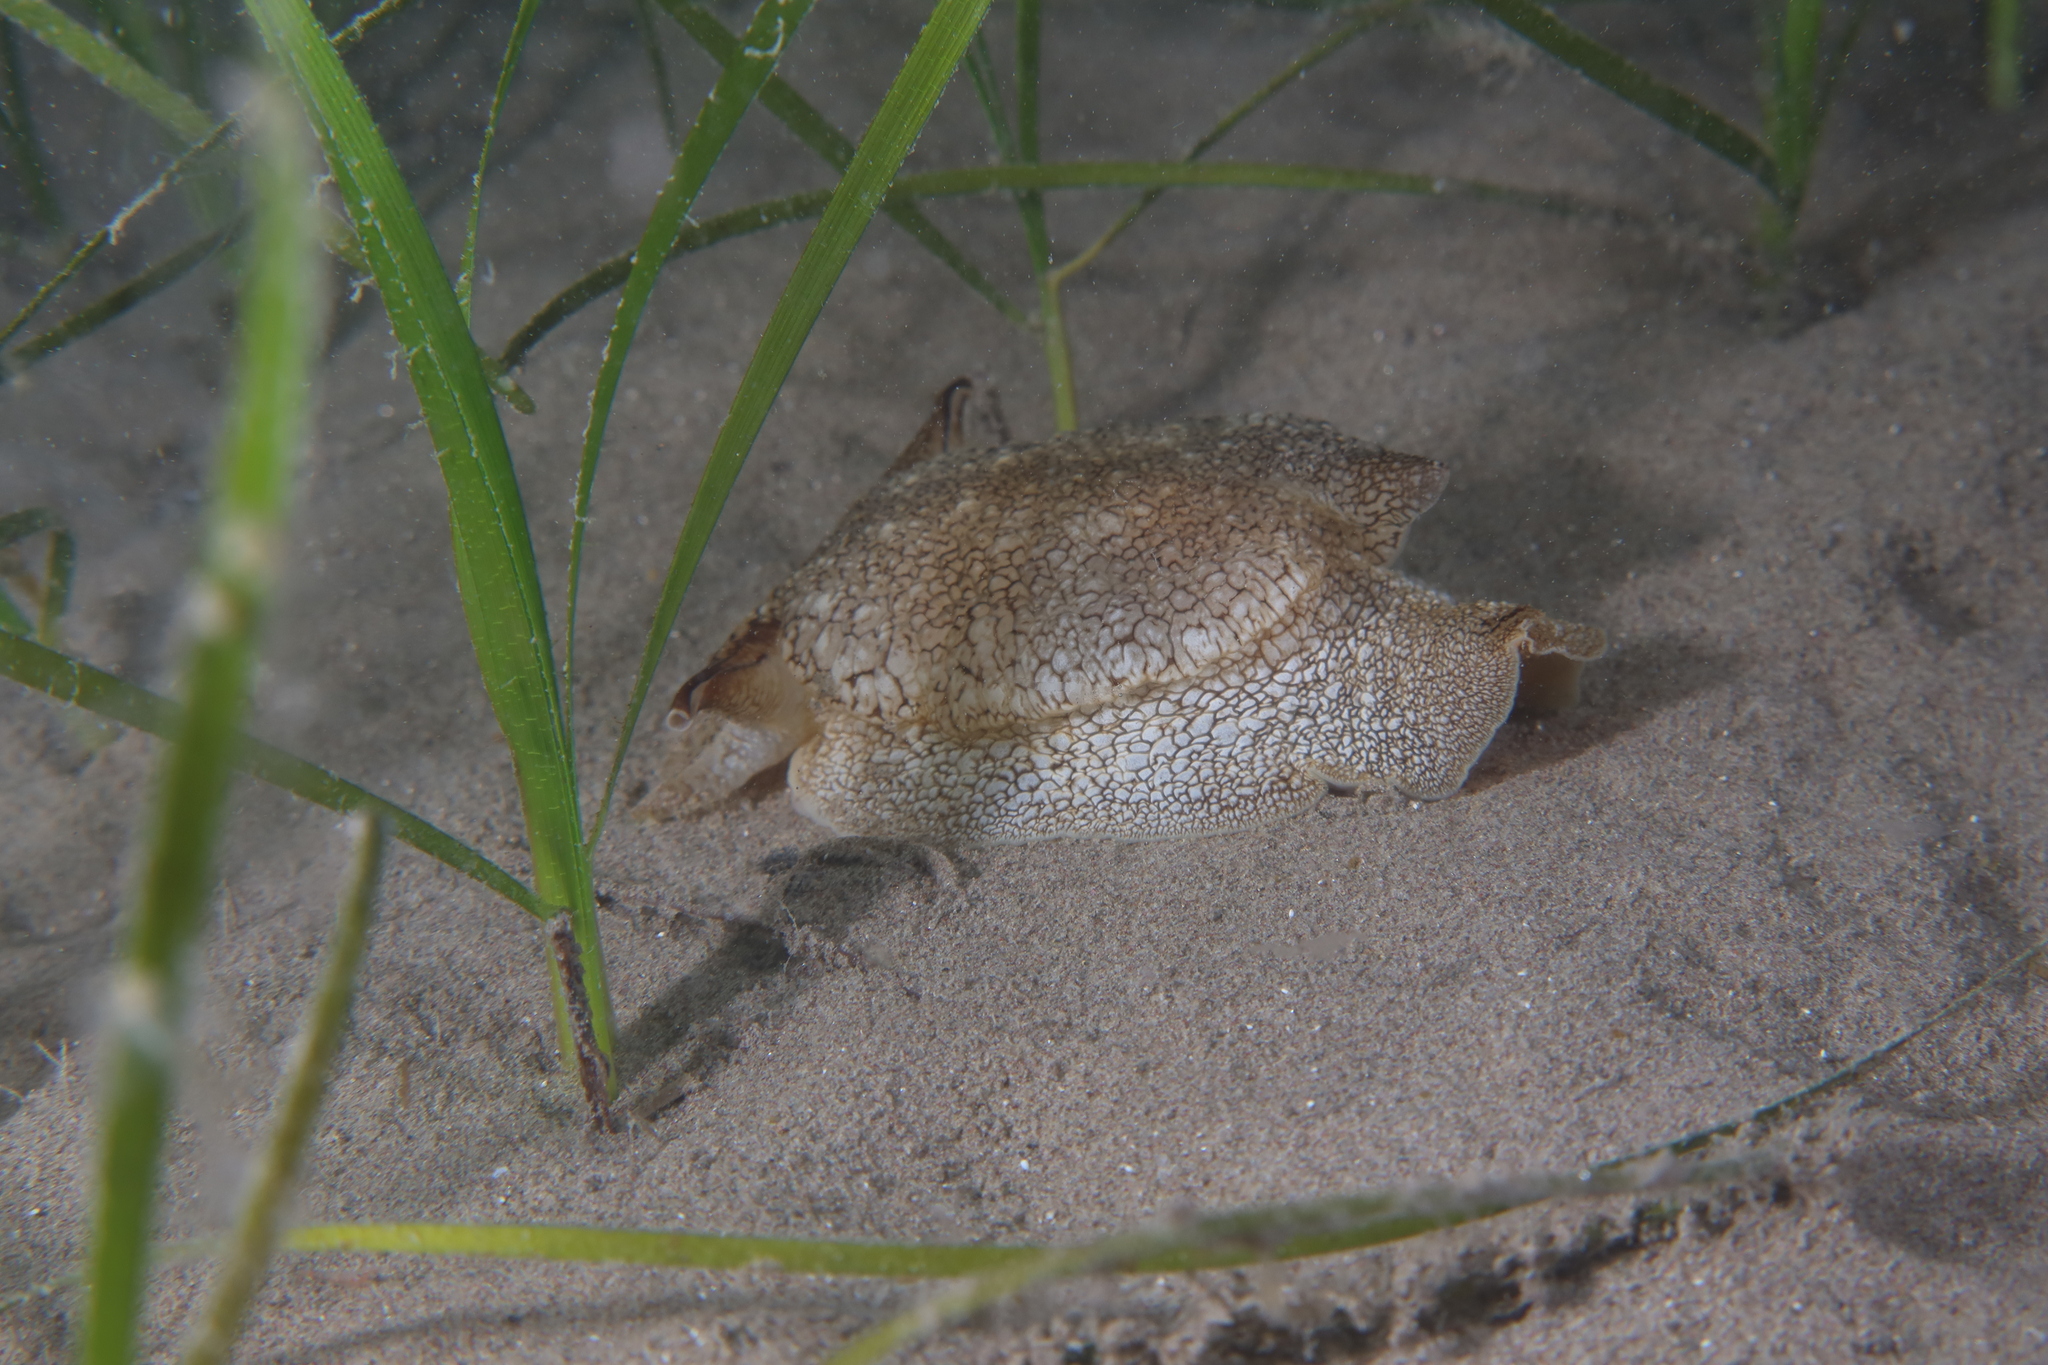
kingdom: Animalia
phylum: Mollusca
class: Gastropoda
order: Pleurobranchida
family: Pleurobranchaeidae
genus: Pleurobranchaea
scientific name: Pleurobranchaea meckeli
